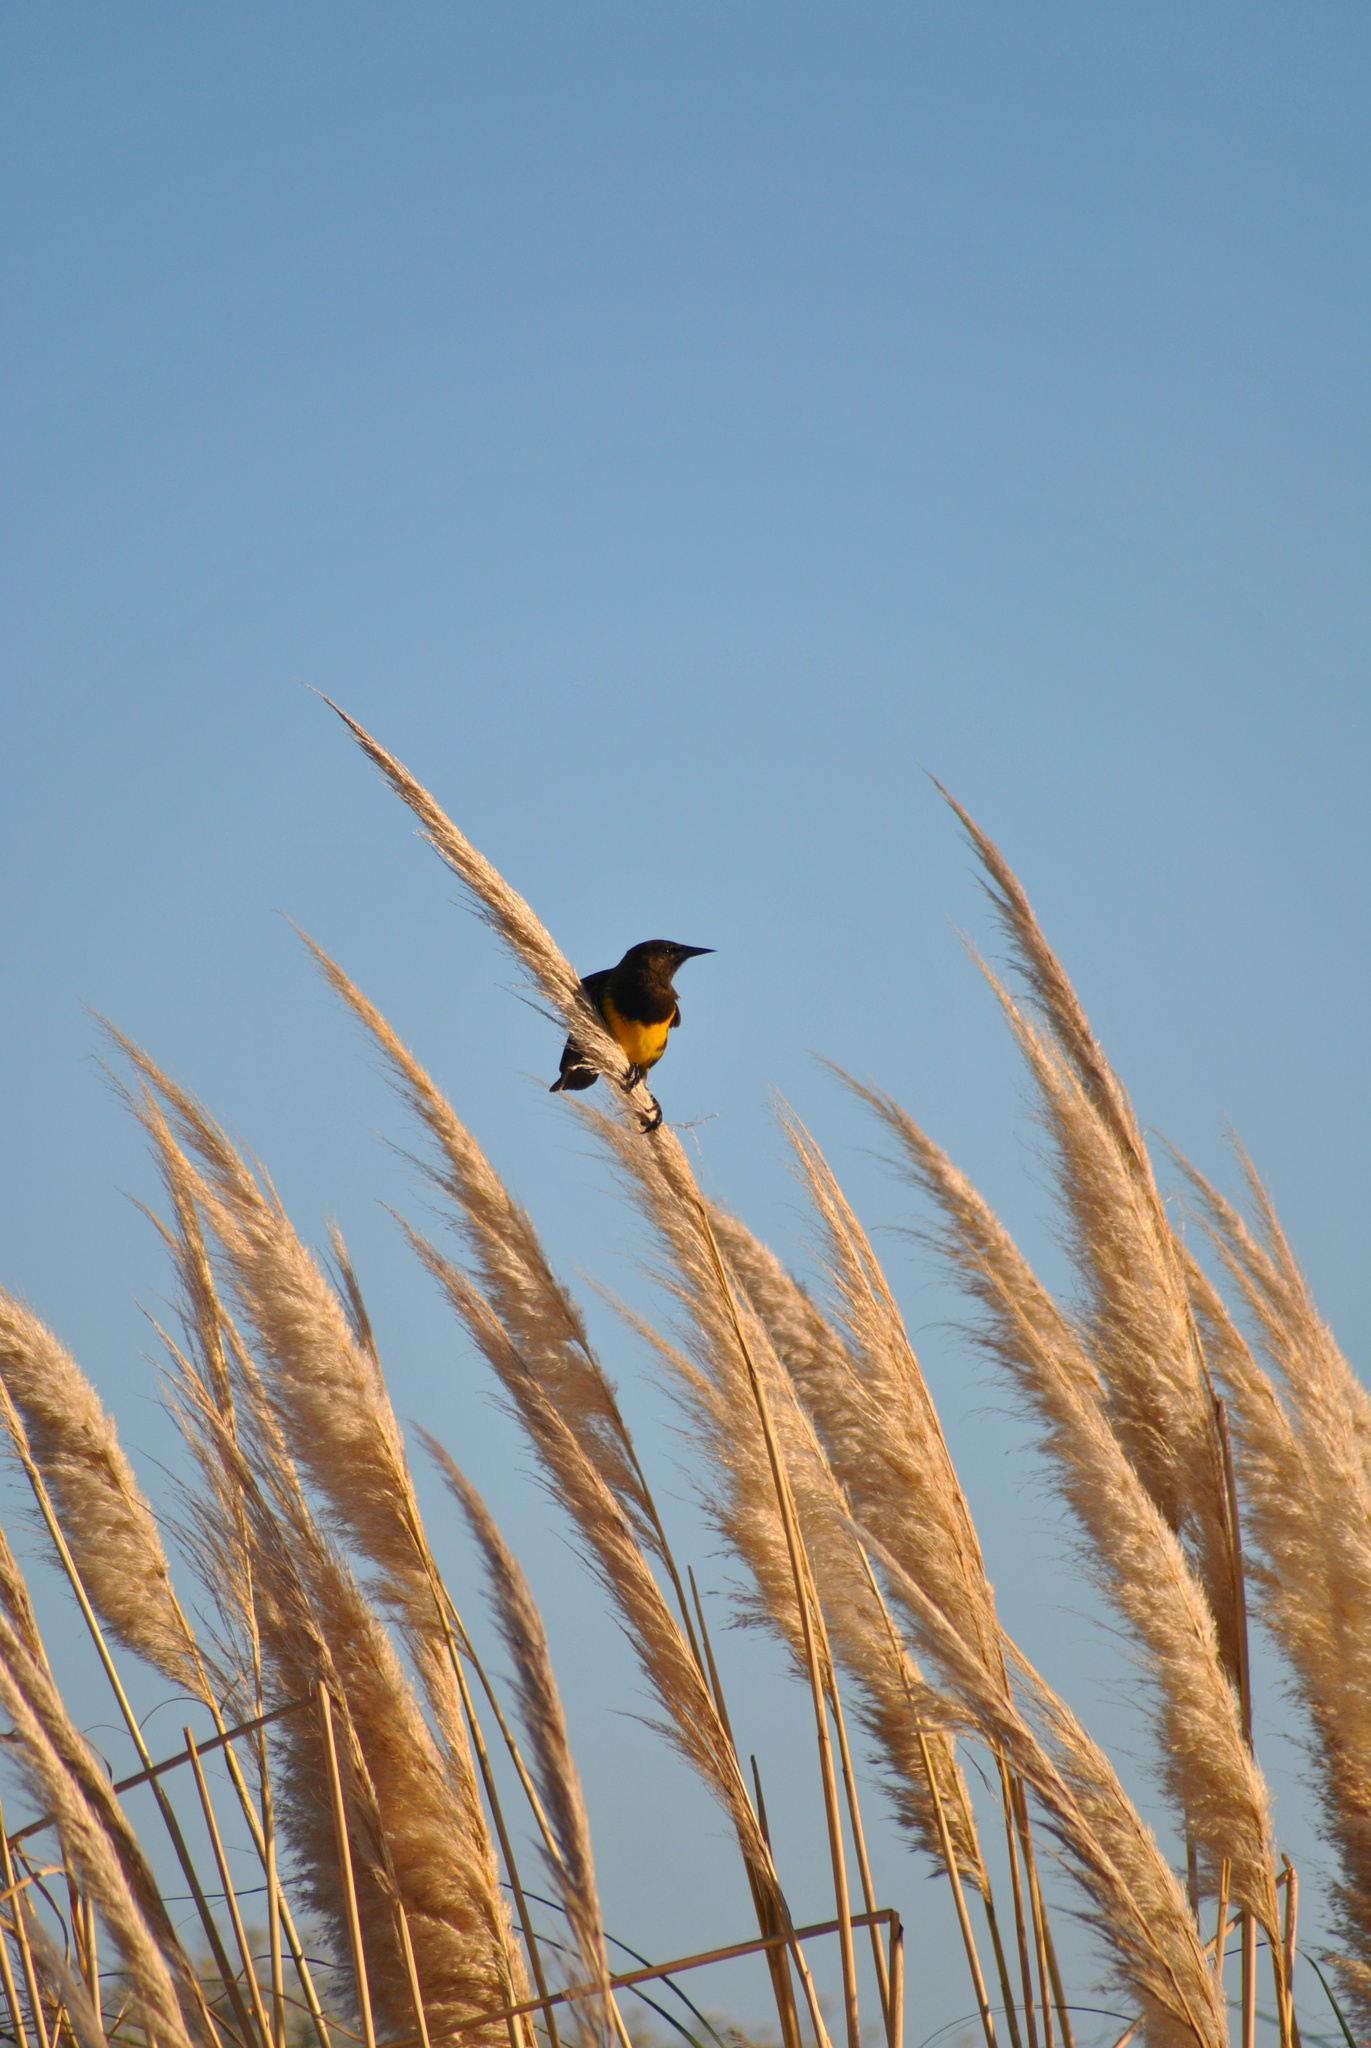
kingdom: Animalia
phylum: Chordata
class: Aves
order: Passeriformes
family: Icteridae
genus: Pseudoleistes
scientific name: Pseudoleistes virescens
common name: Brown-and-yellow marshbird
